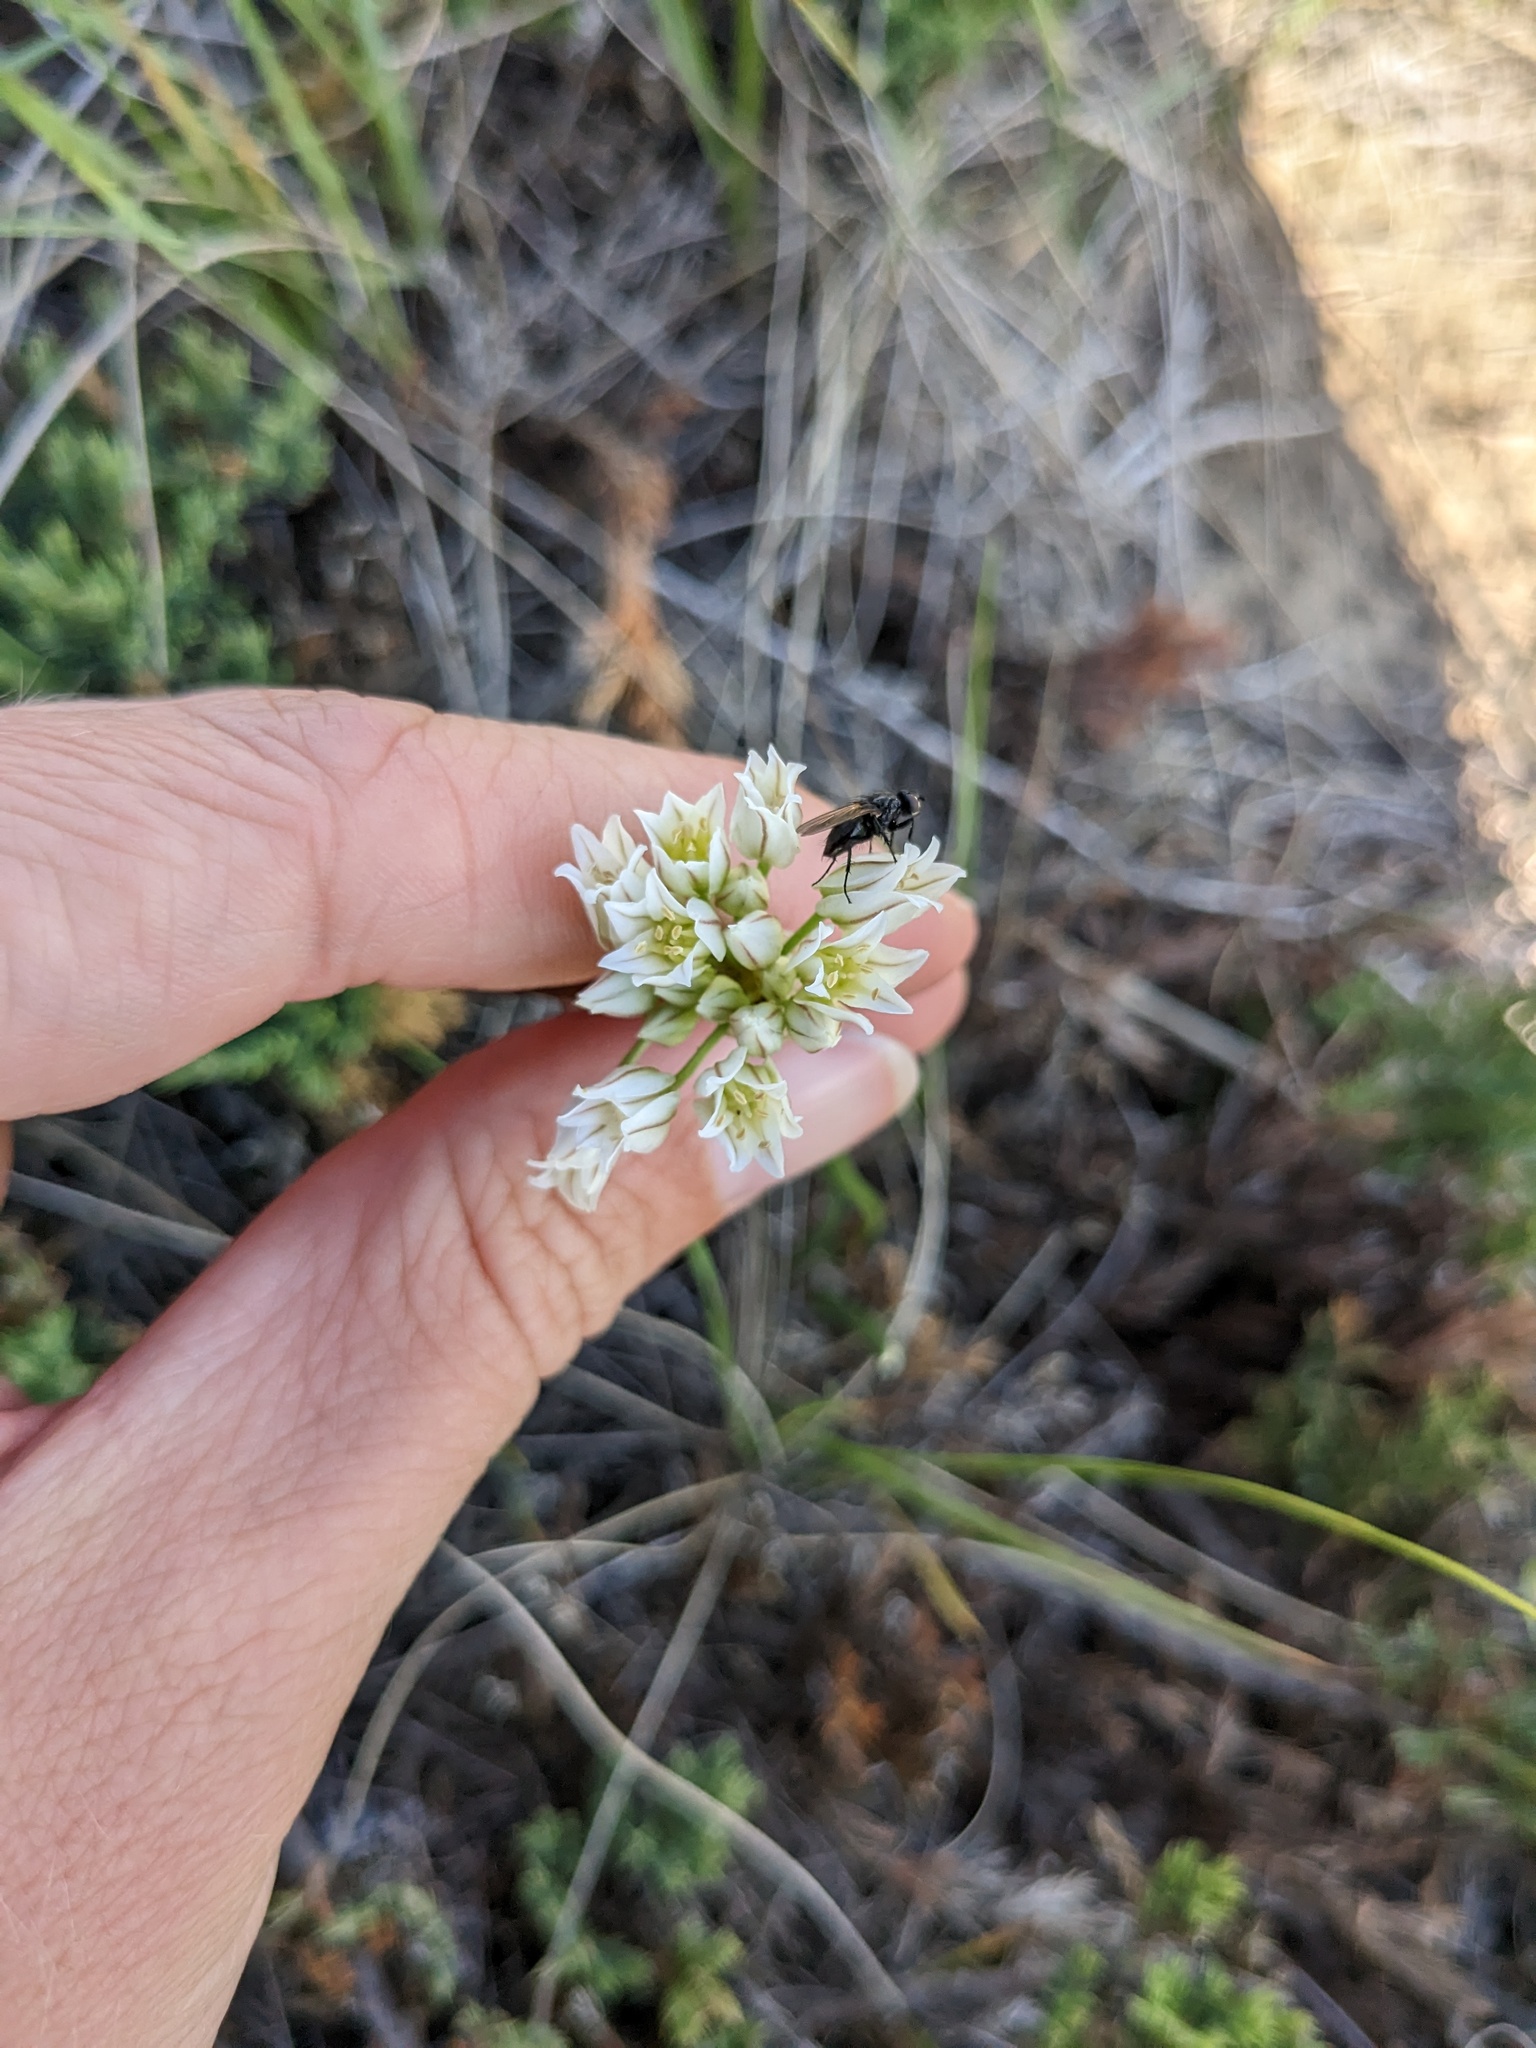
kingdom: Plantae
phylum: Tracheophyta
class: Liliopsida
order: Asparagales
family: Amaryllidaceae
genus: Allium
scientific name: Allium textile
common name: Prairie onion
